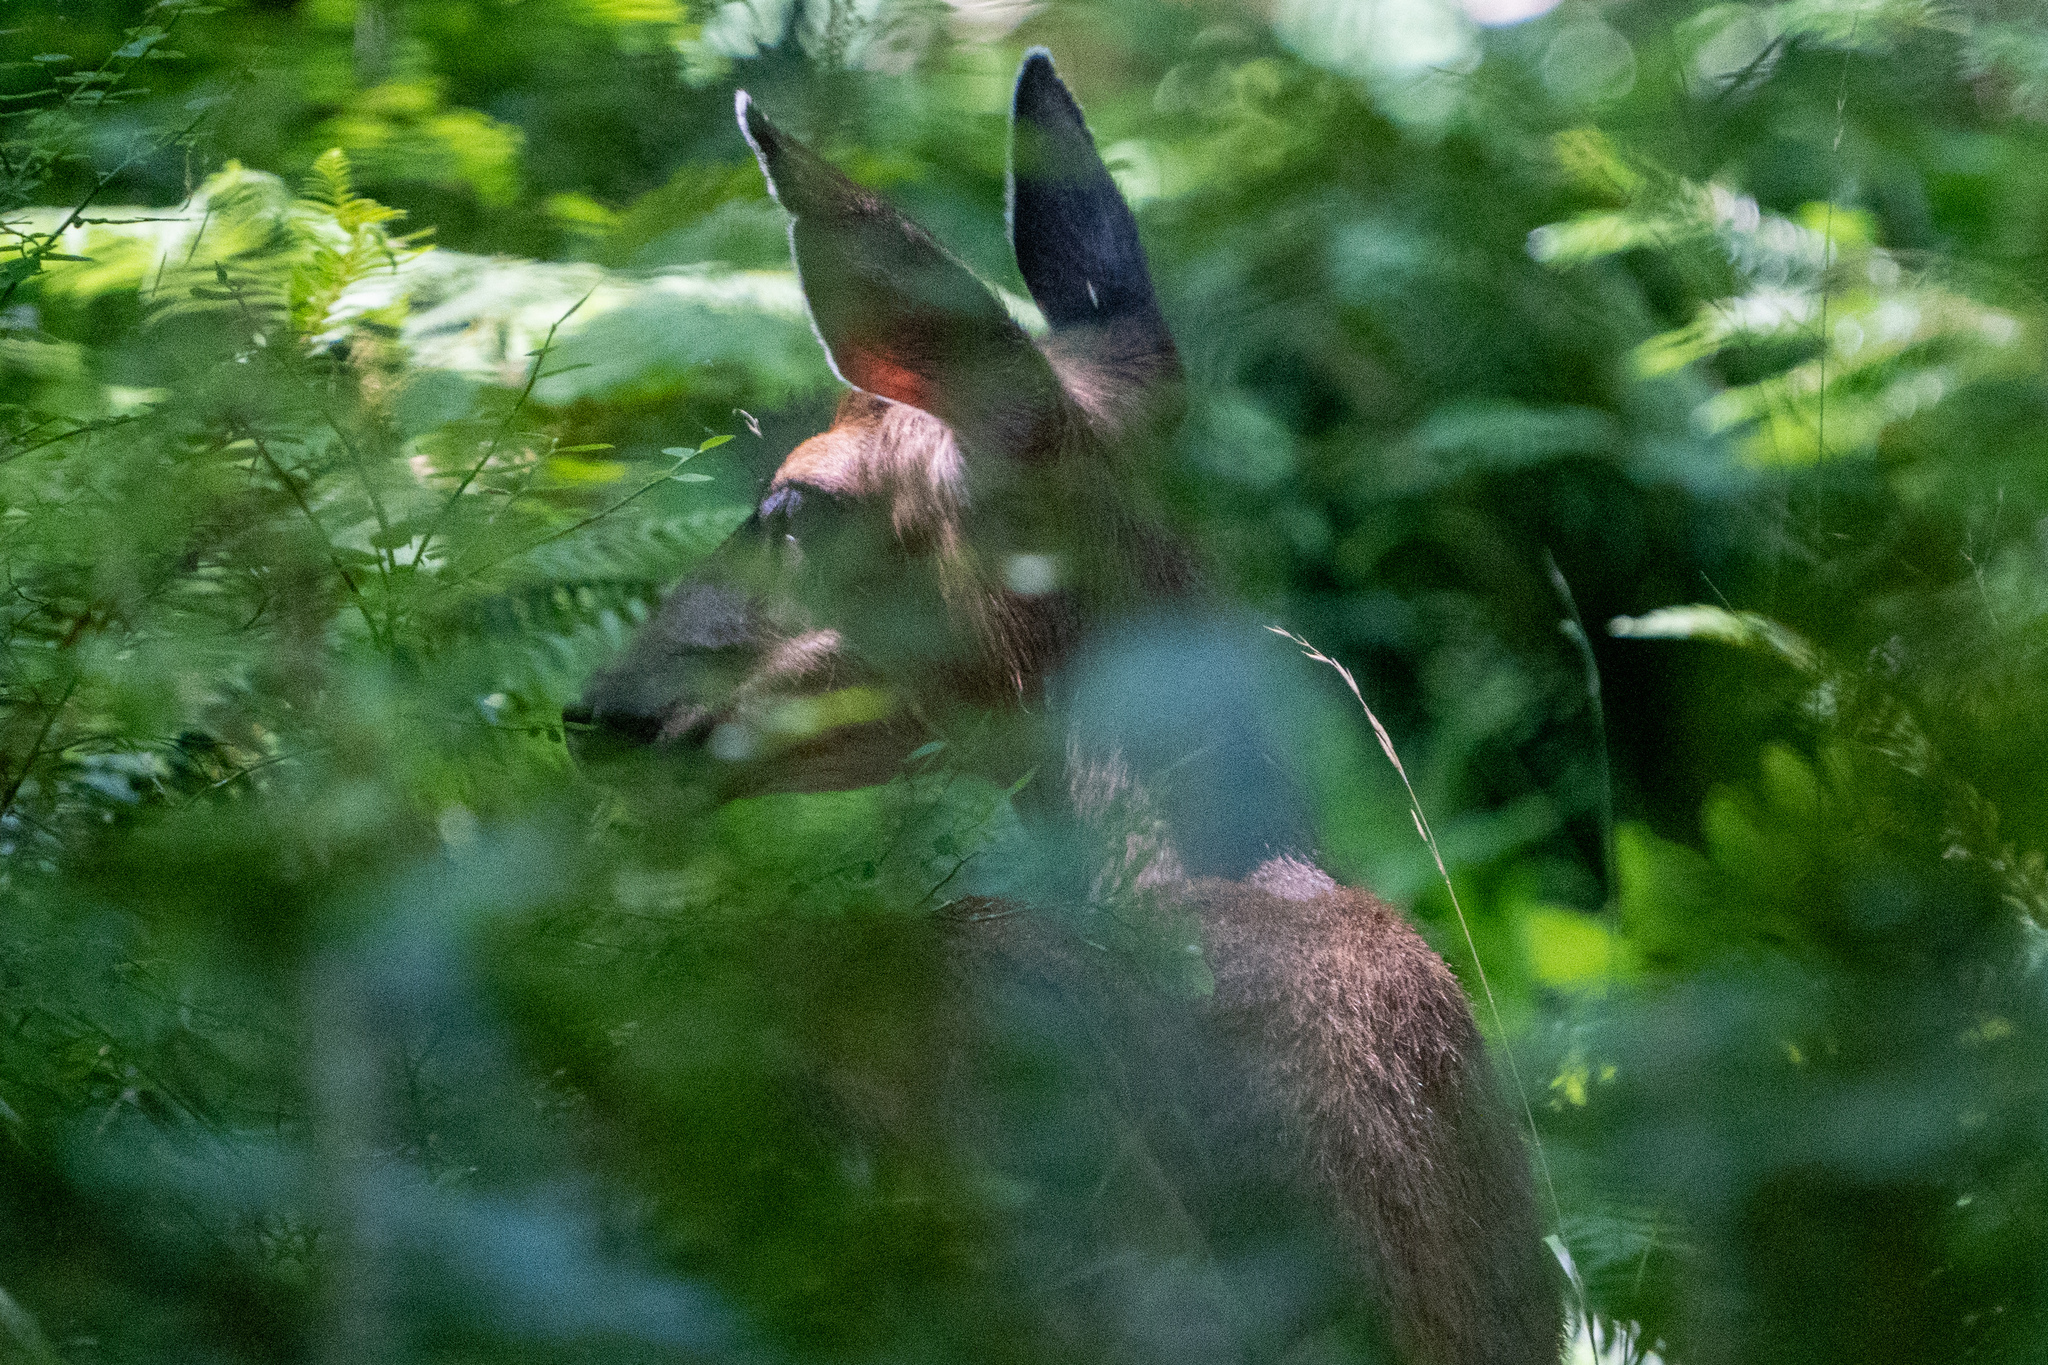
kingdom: Animalia
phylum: Chordata
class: Mammalia
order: Artiodactyla
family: Cervidae
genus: Odocoileus
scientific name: Odocoileus hemionus
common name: Mule deer
